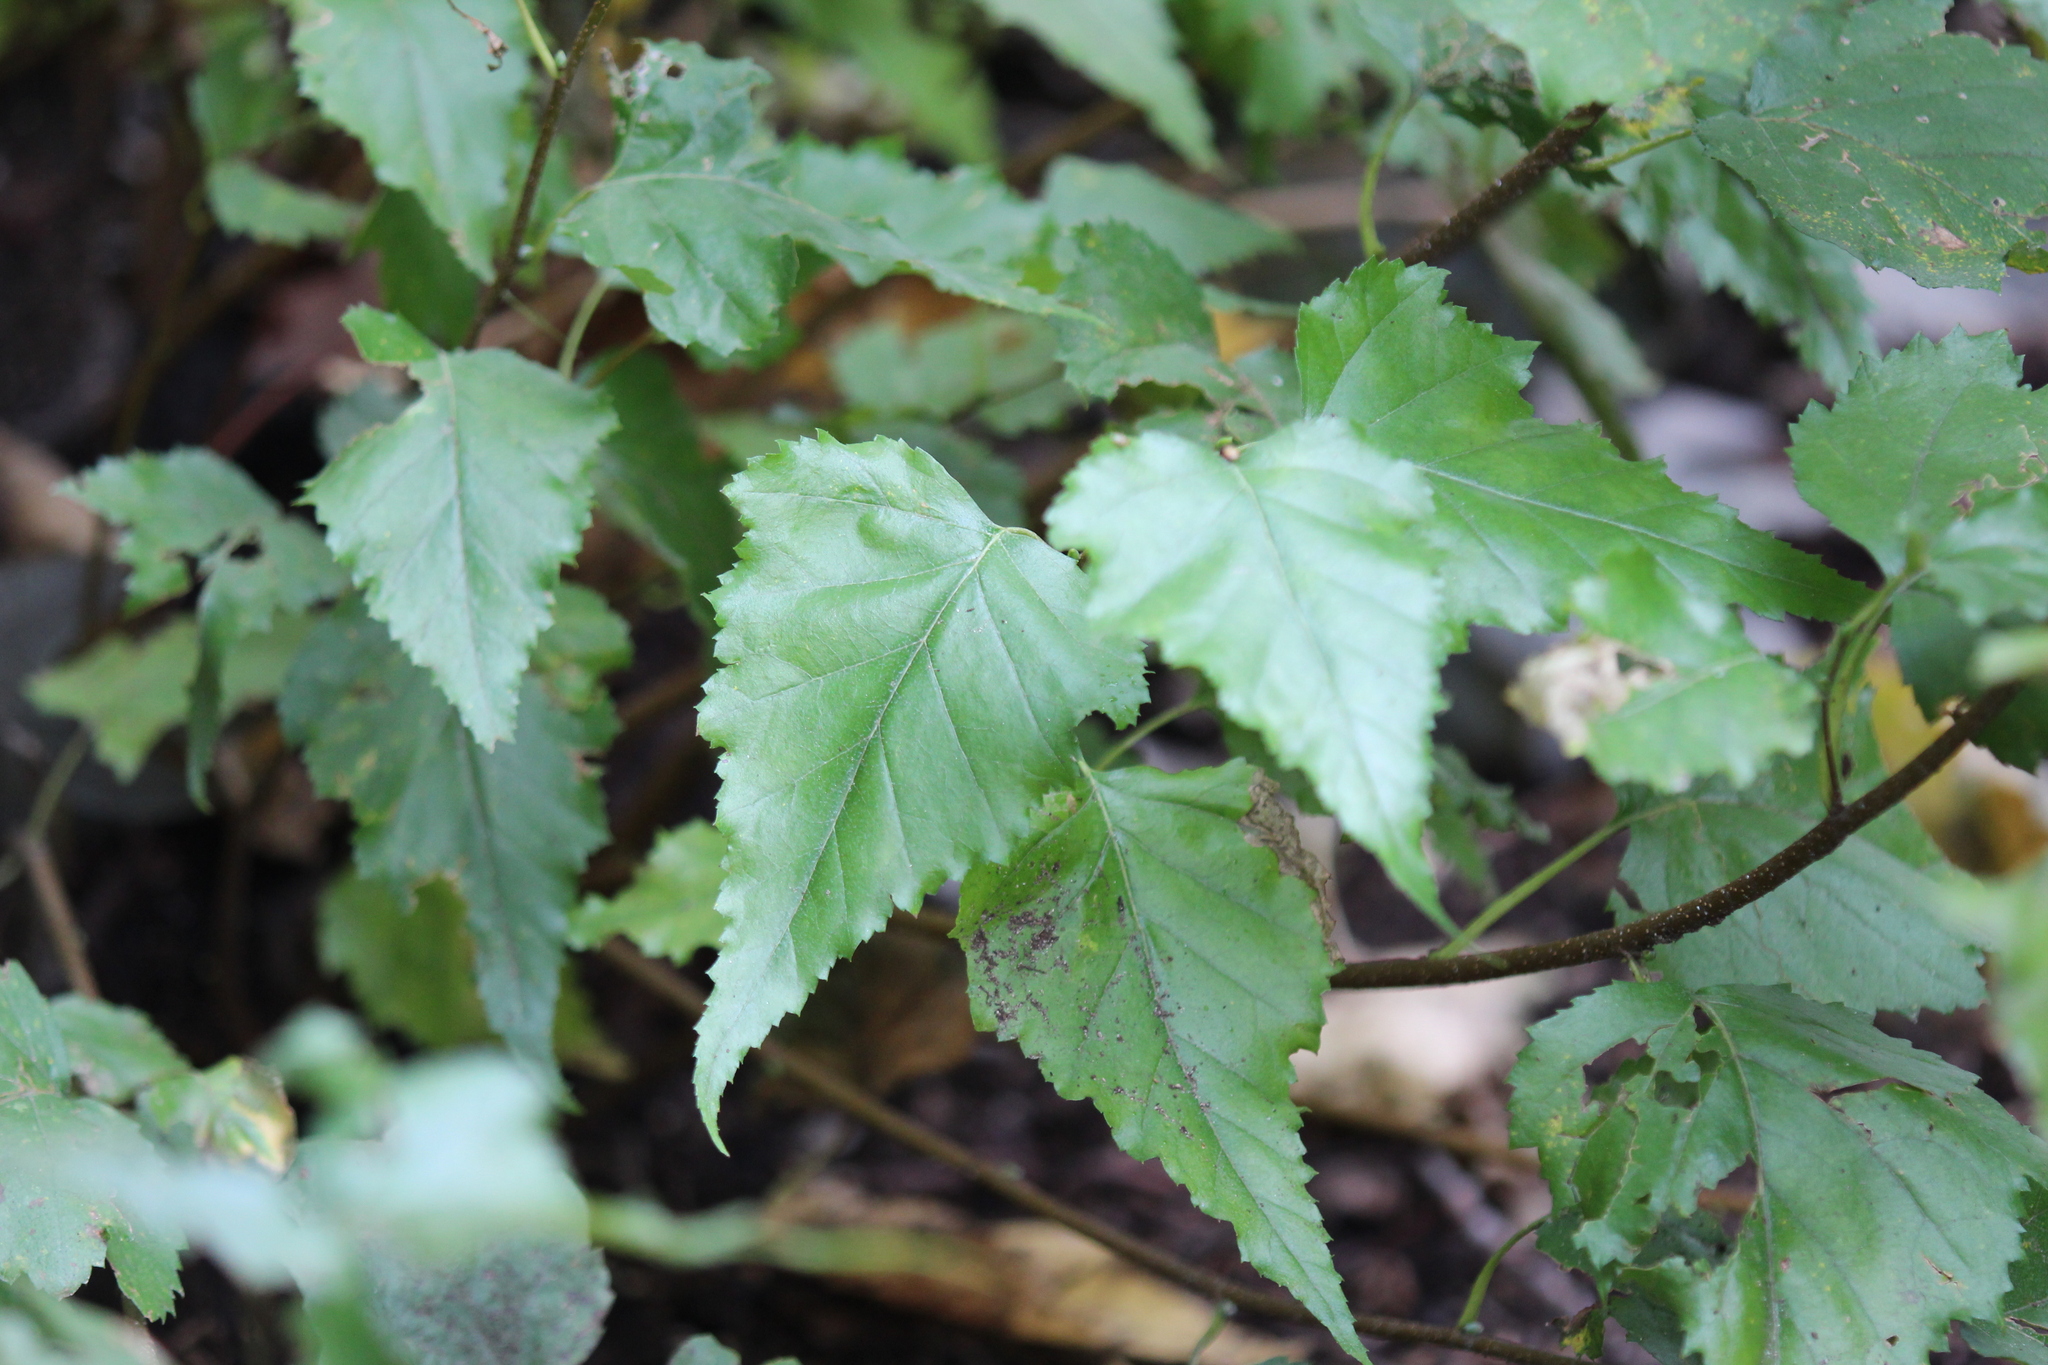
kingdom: Plantae
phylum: Tracheophyta
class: Magnoliopsida
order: Fagales
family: Betulaceae
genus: Betula
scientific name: Betula populifolia
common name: Fire birch
